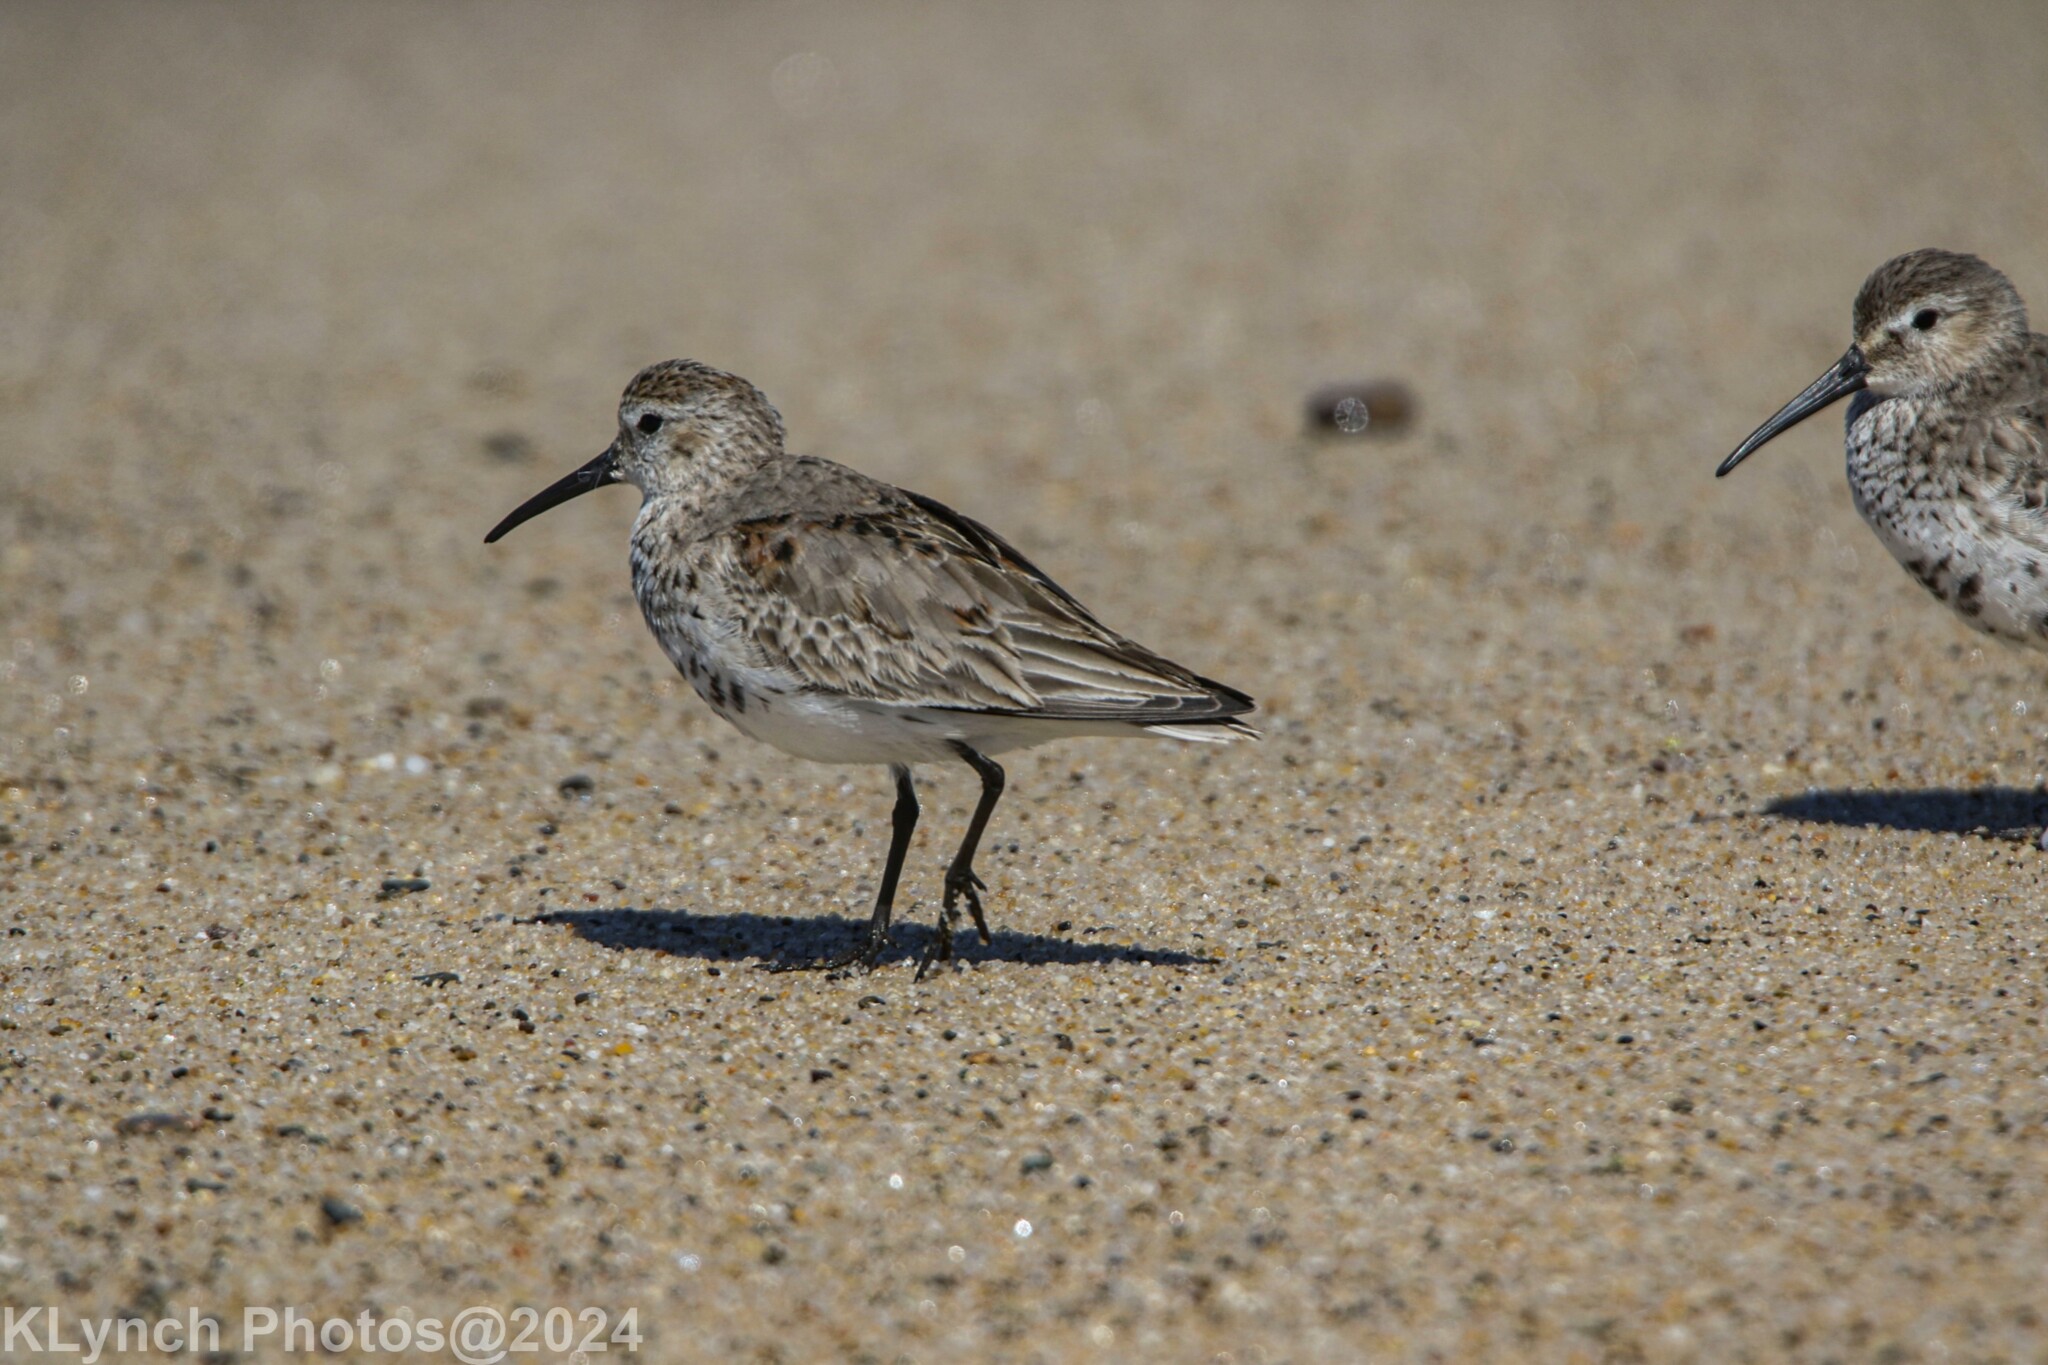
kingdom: Animalia
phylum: Chordata
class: Aves
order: Charadriiformes
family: Scolopacidae
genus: Calidris
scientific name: Calidris alpina
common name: Dunlin
